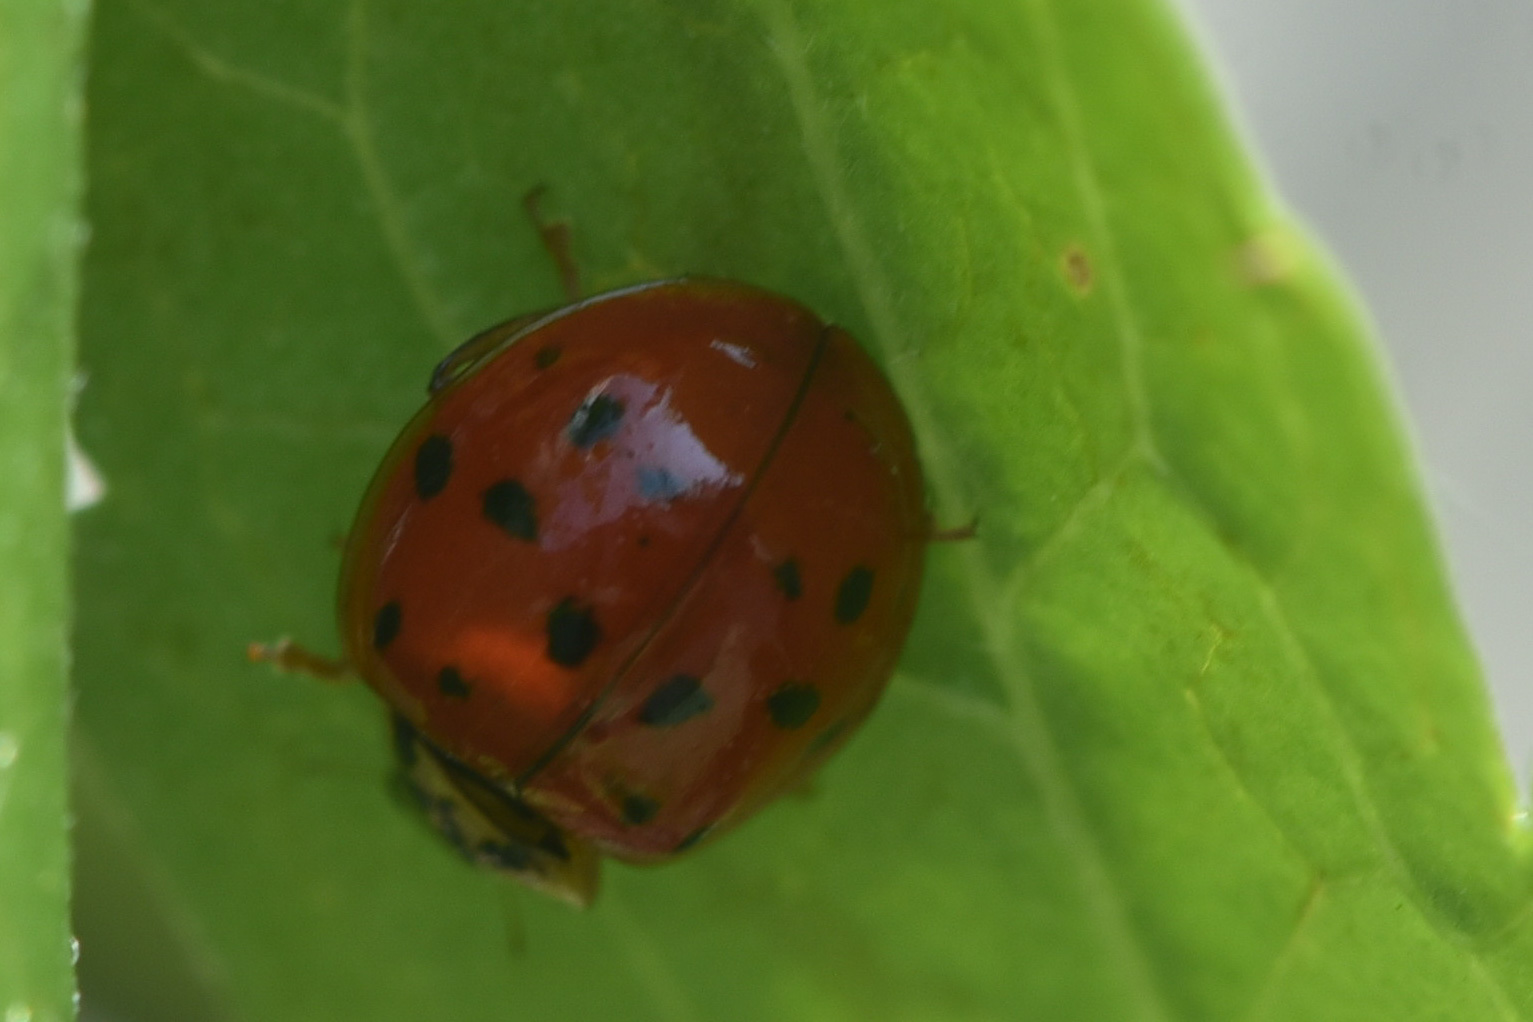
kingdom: Animalia
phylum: Arthropoda
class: Insecta
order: Coleoptera
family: Coccinellidae
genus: Harmonia
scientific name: Harmonia axyridis
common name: Harlequin ladybird
